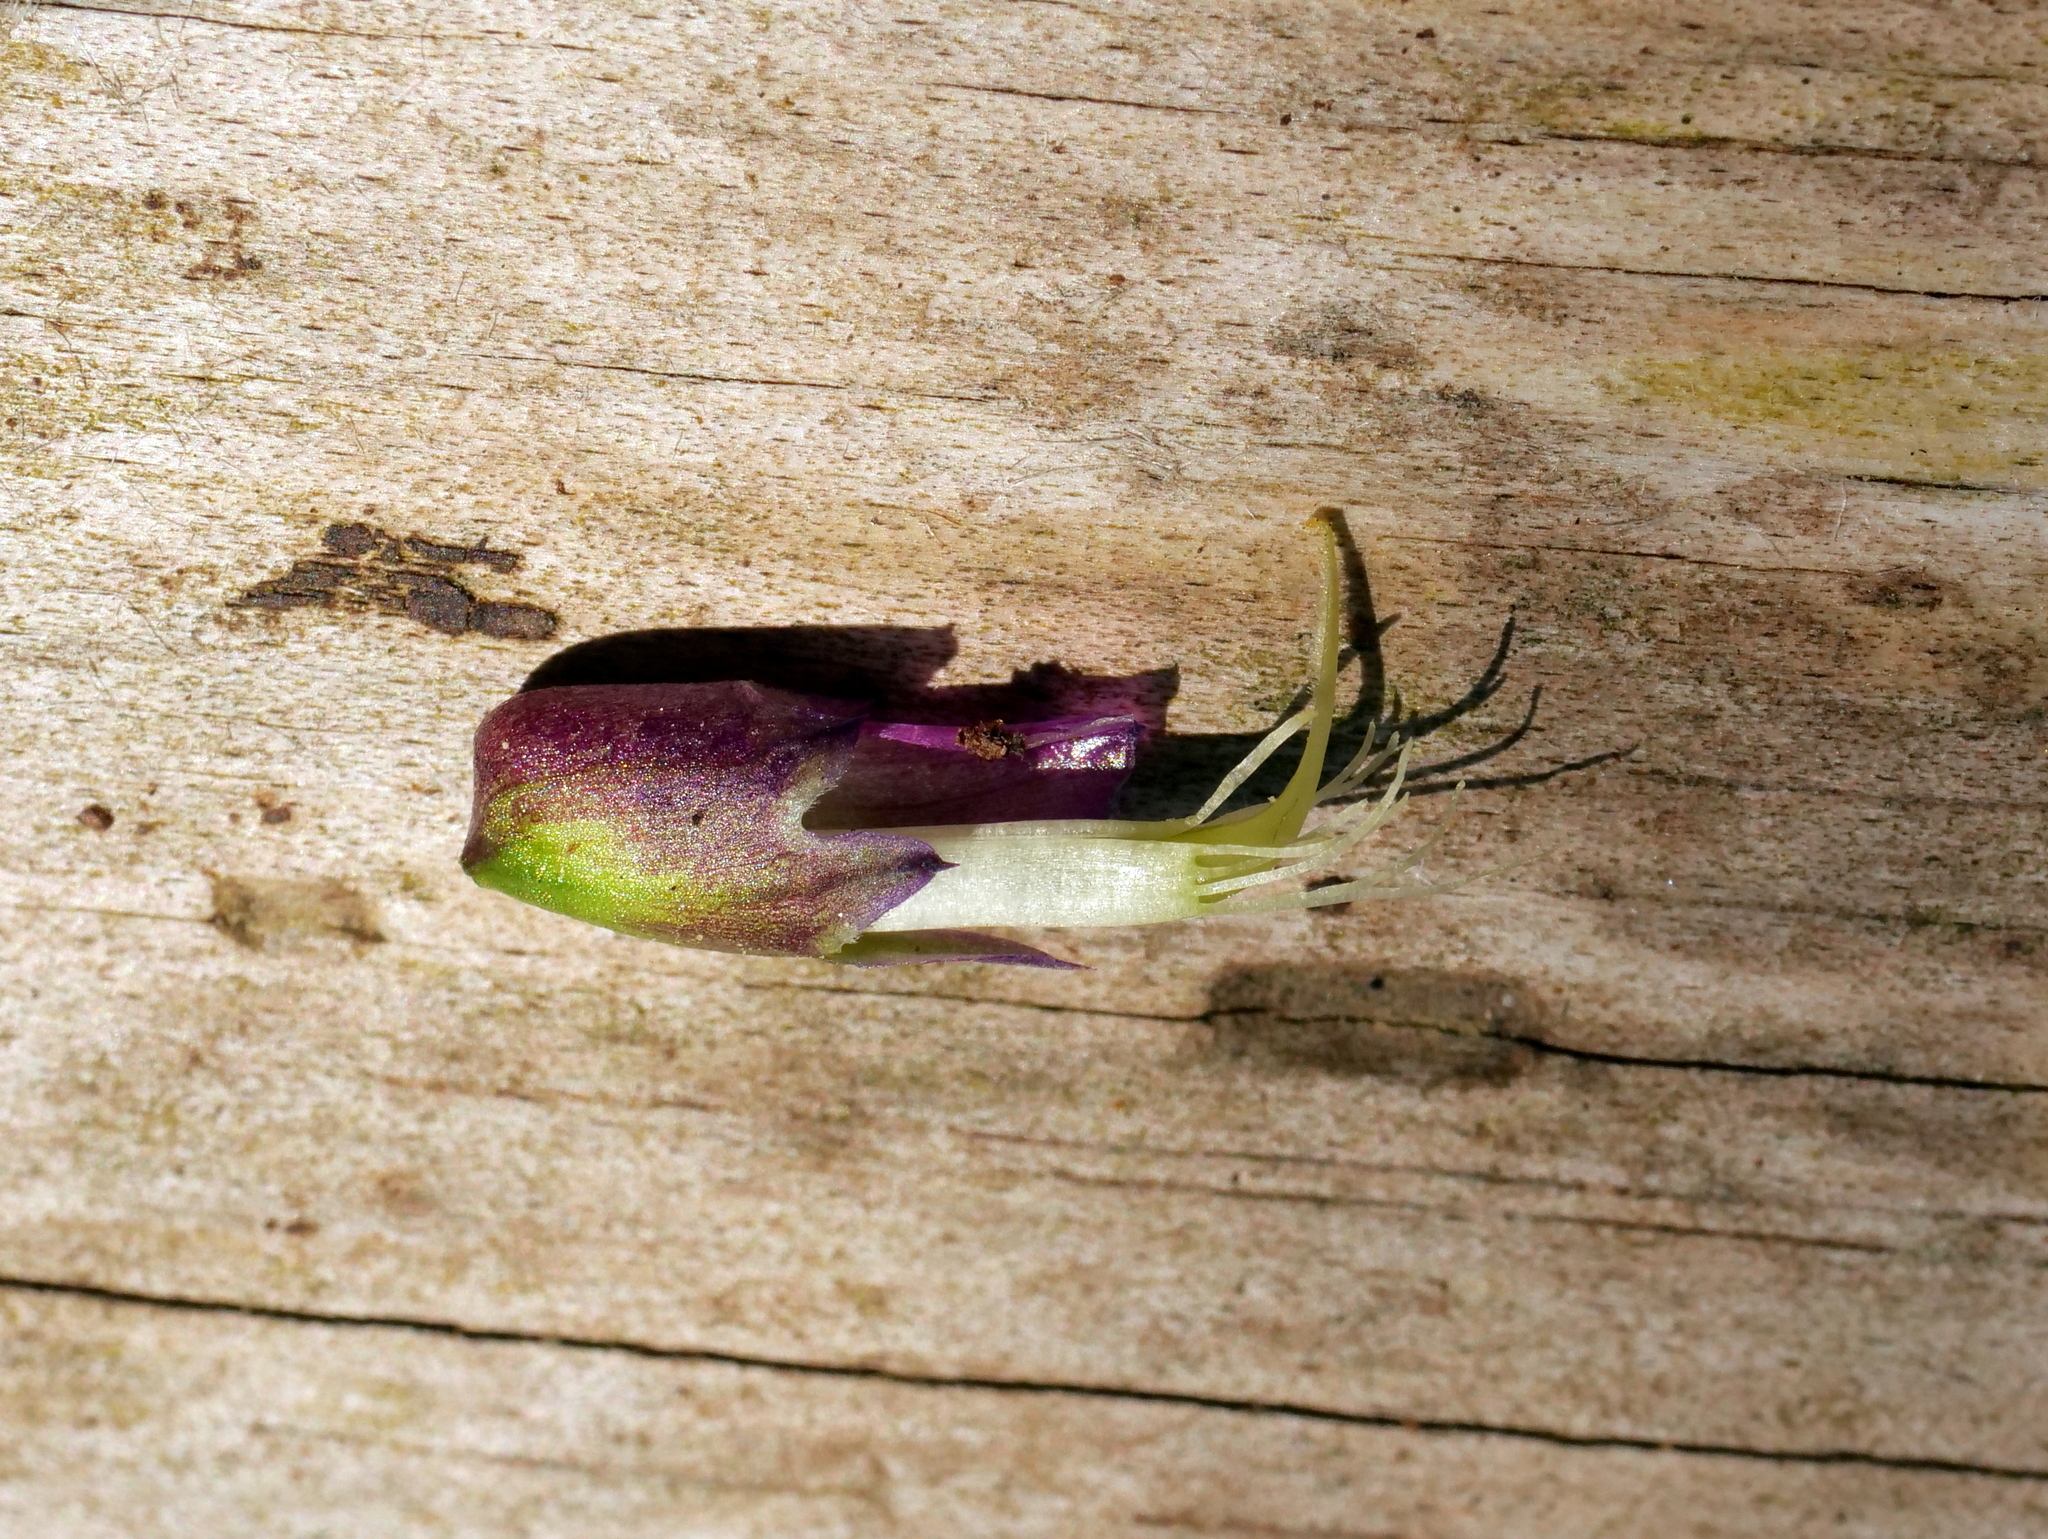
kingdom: Plantae
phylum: Tracheophyta
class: Magnoliopsida
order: Fabales
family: Fabaceae
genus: Lathyrus
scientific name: Lathyrus vernus
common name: Spring pea
